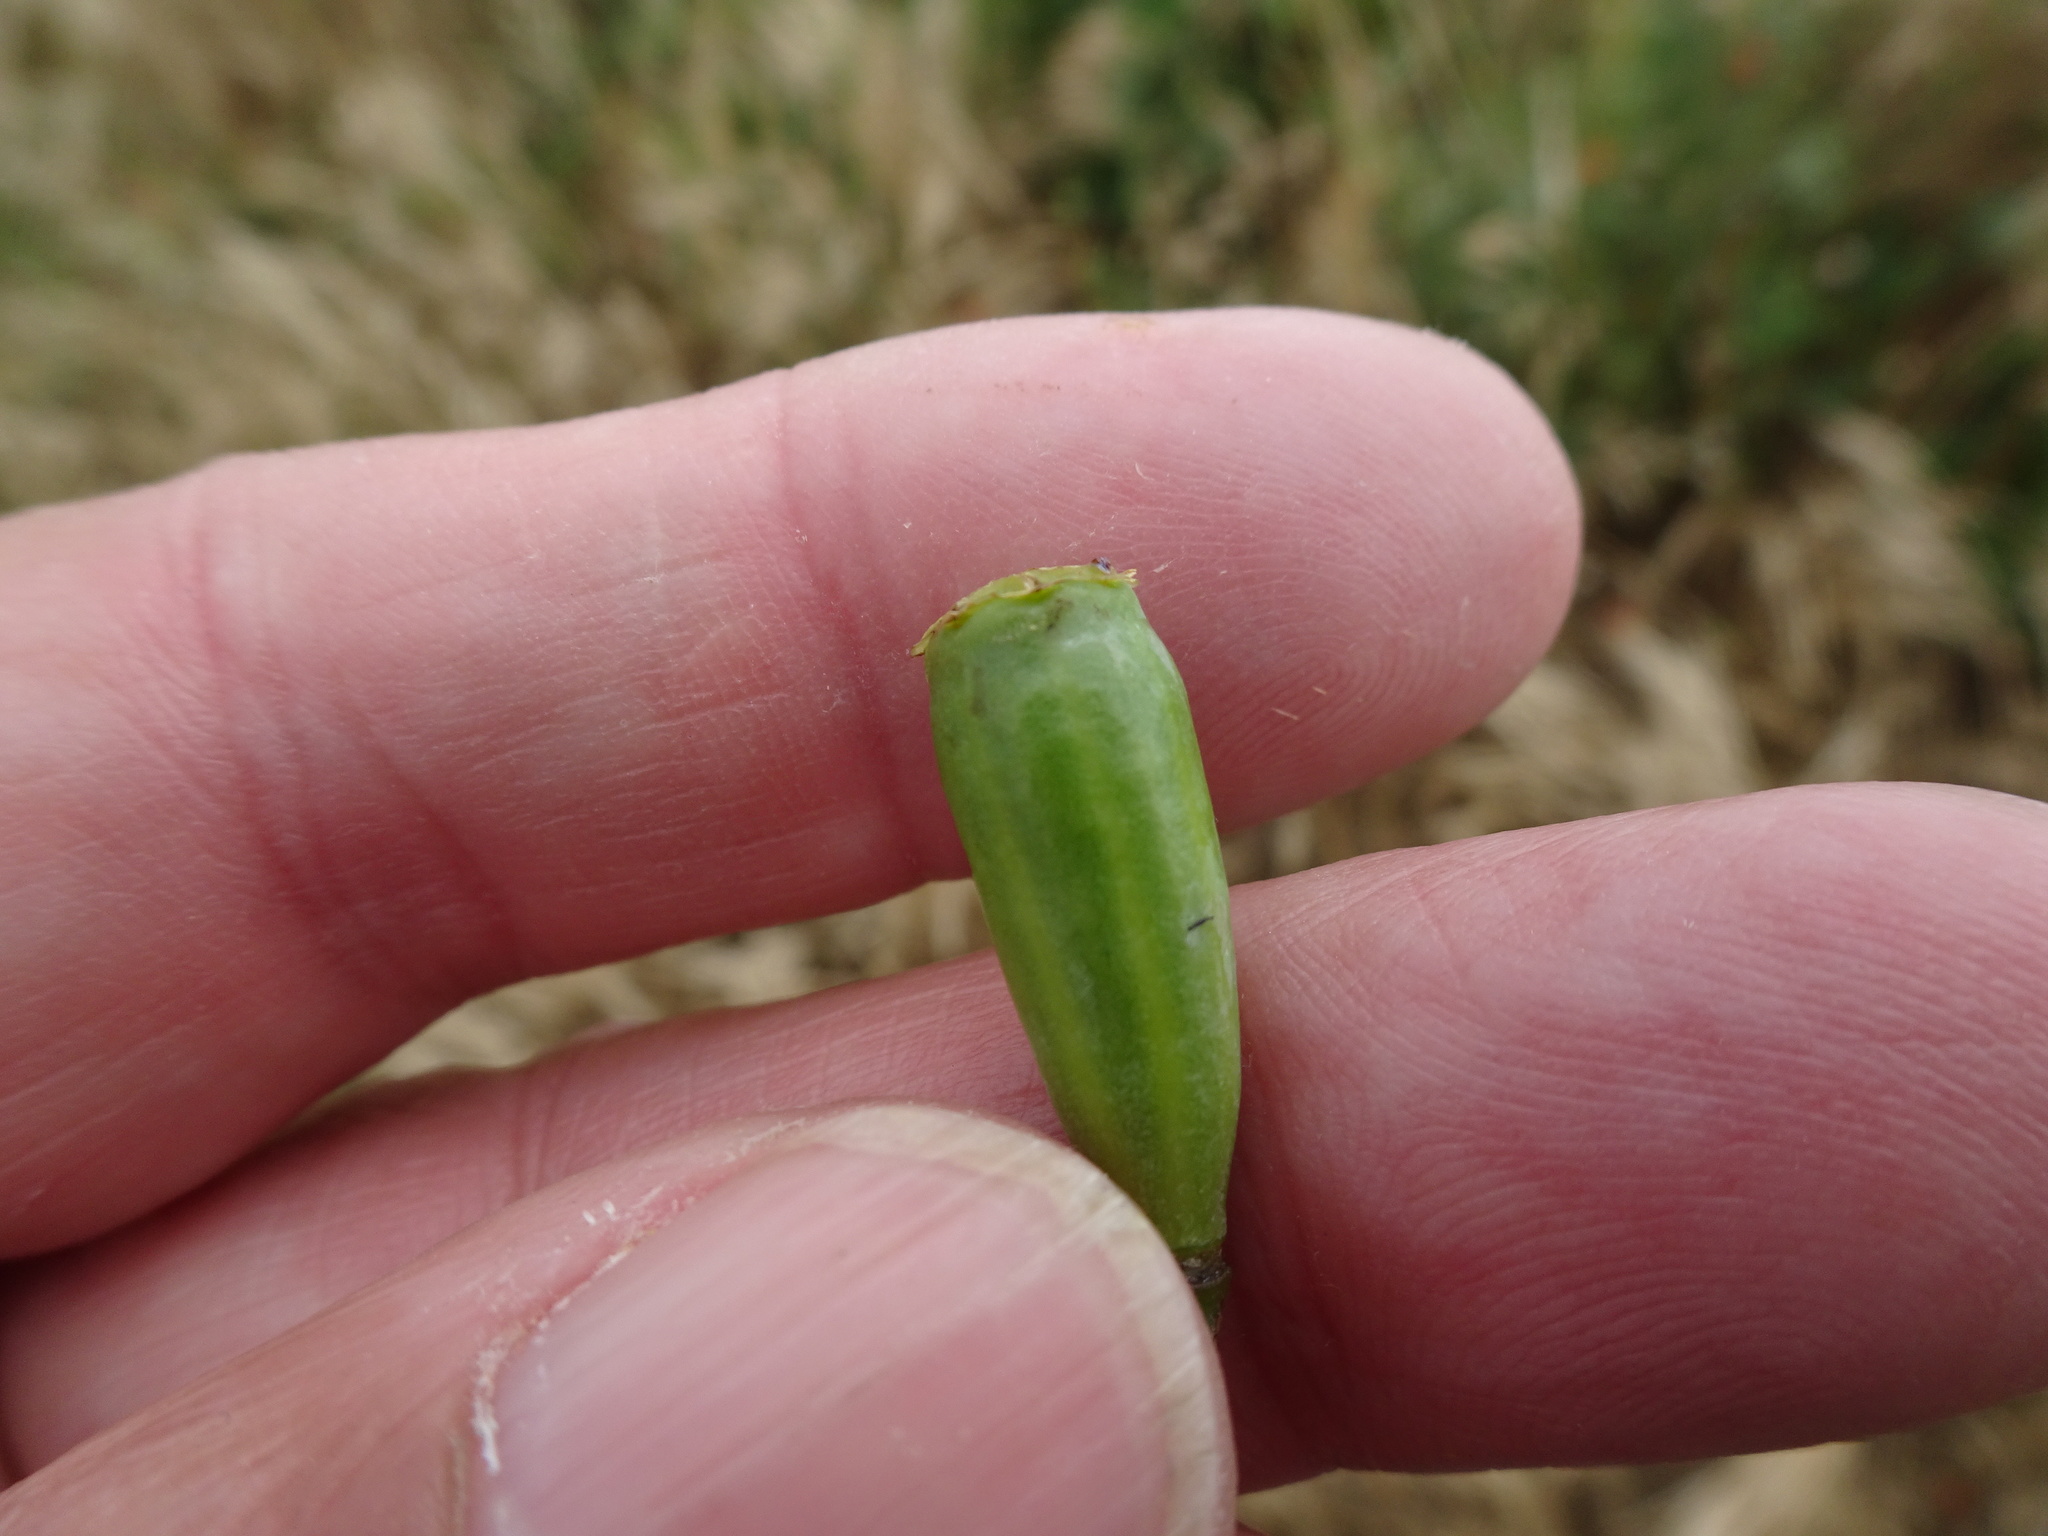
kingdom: Plantae
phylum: Tracheophyta
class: Magnoliopsida
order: Ranunculales
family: Papaveraceae
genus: Papaver
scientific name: Papaver dubium
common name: Long-headed poppy
